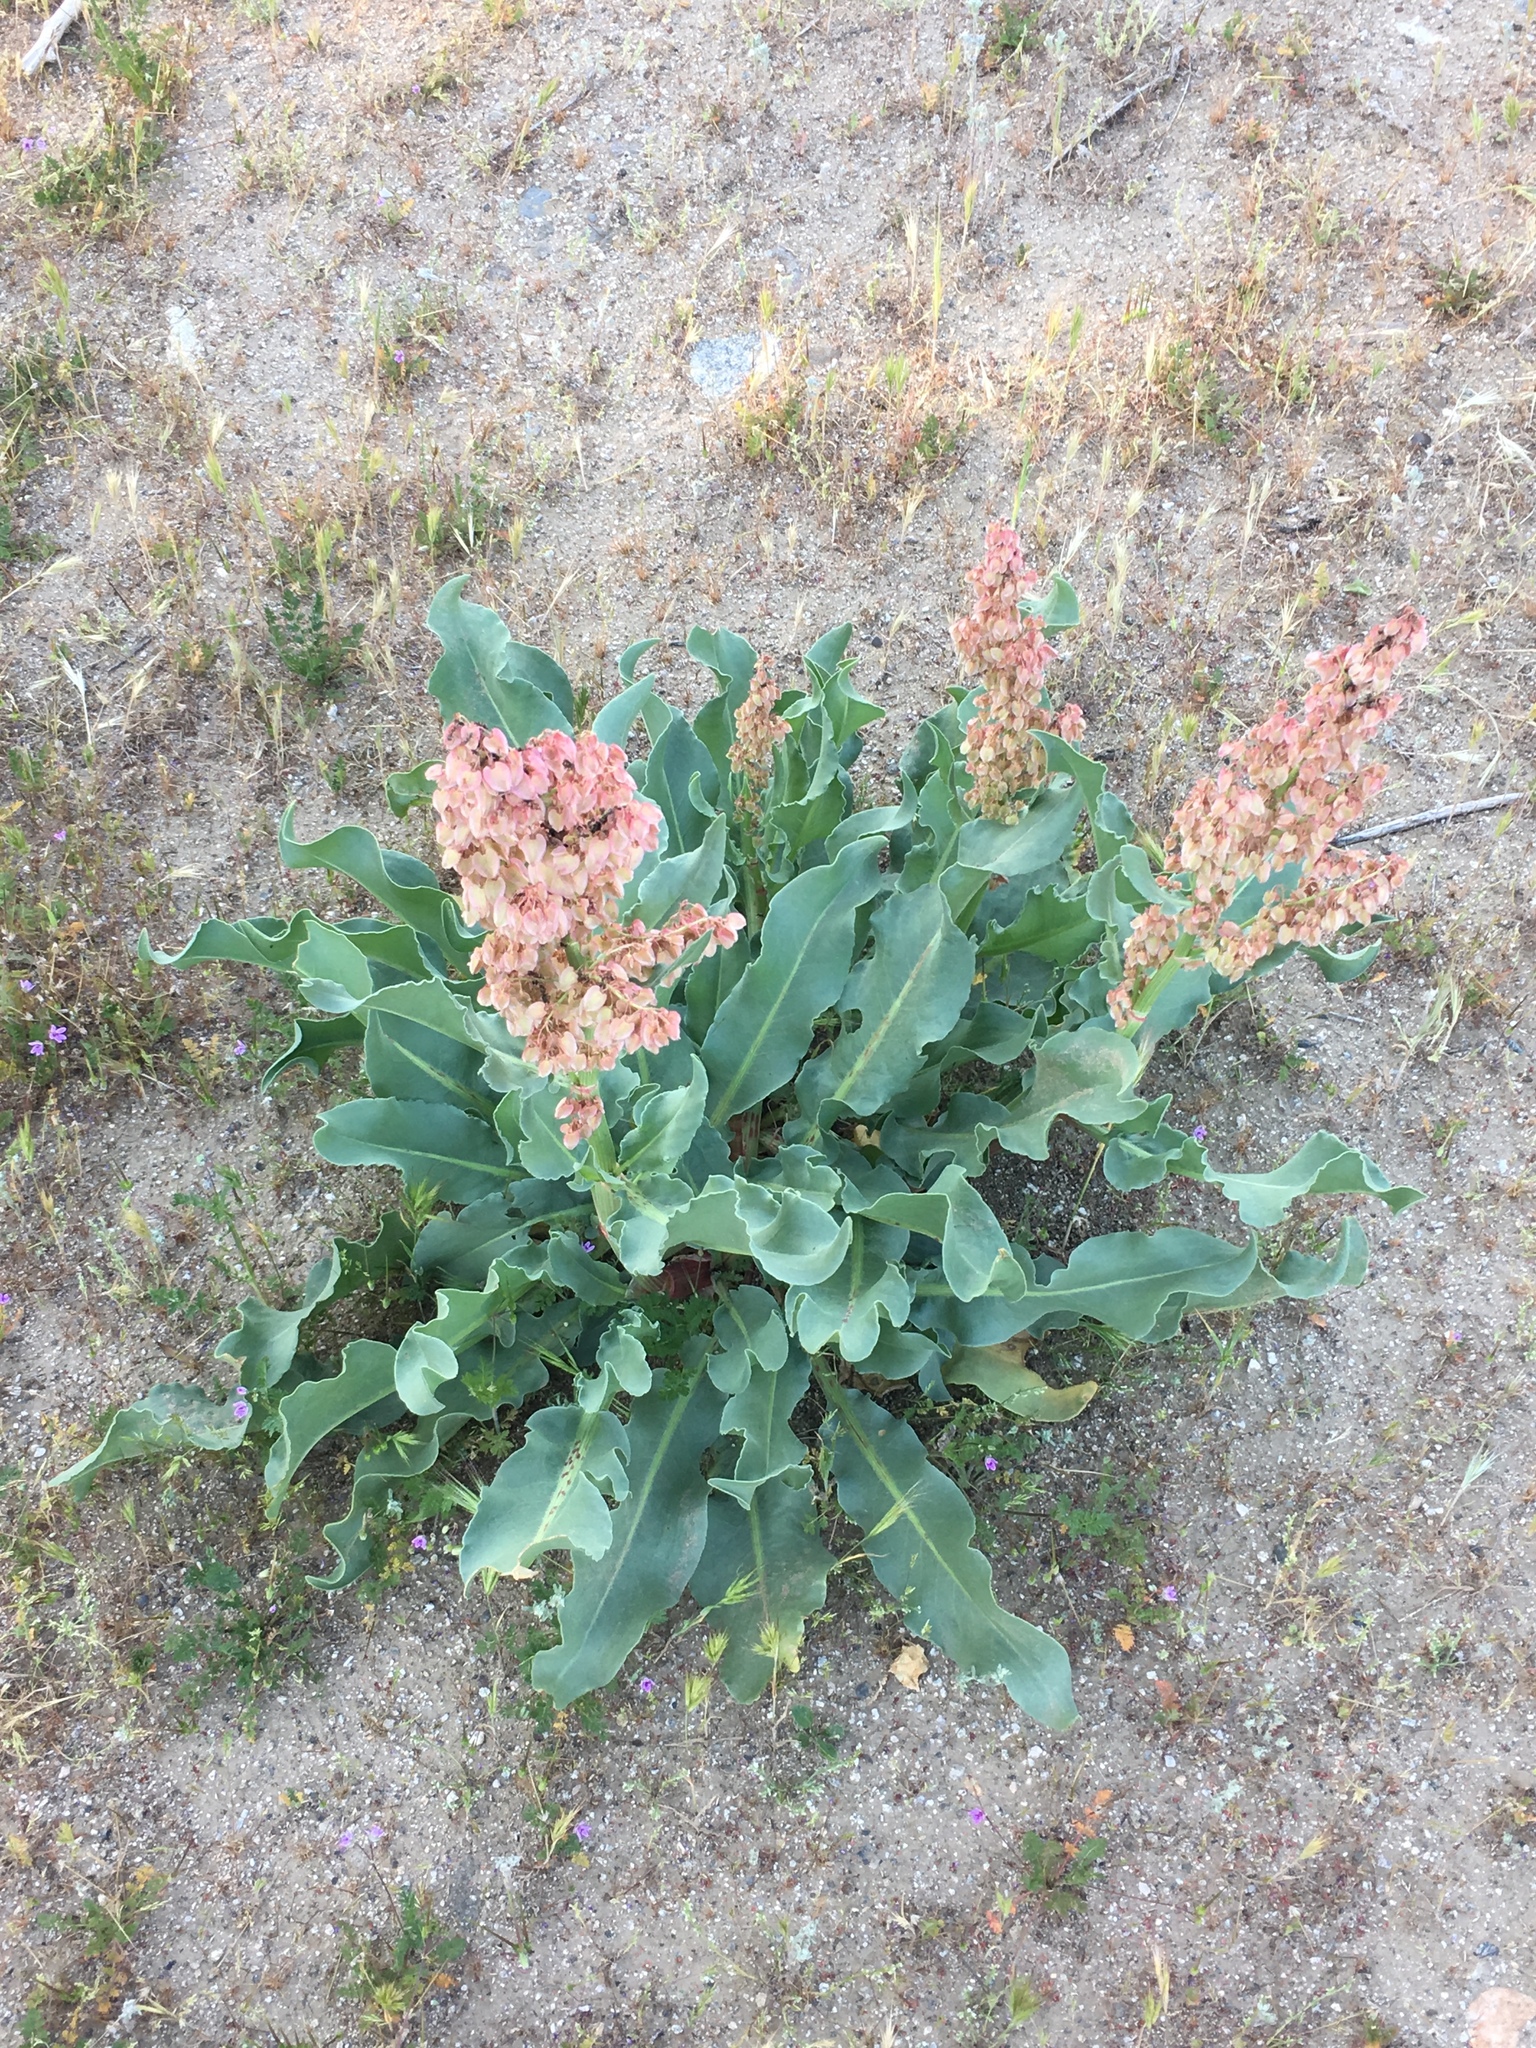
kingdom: Plantae
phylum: Tracheophyta
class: Magnoliopsida
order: Caryophyllales
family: Polygonaceae
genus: Rumex
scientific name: Rumex hymenosepalus
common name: Ganagra
